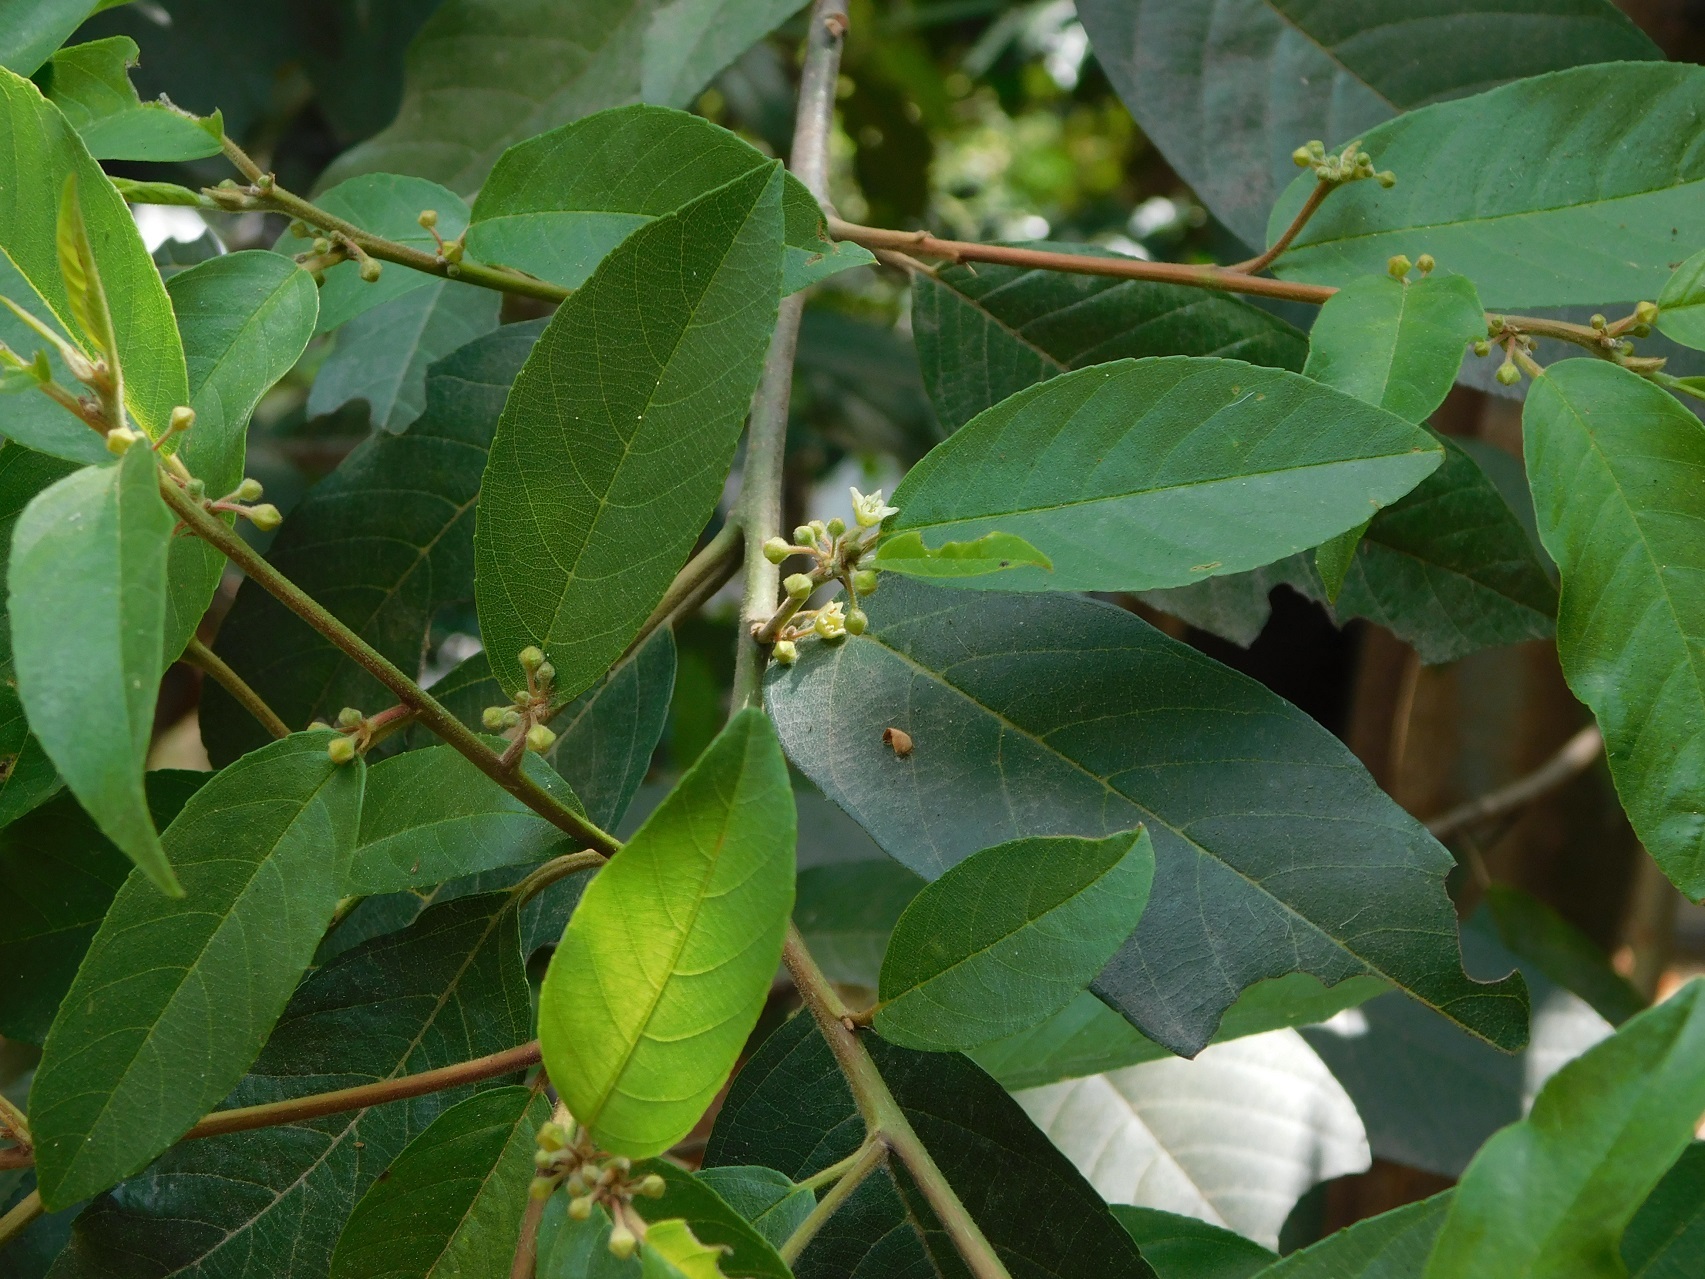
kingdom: Plantae
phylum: Tracheophyta
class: Magnoliopsida
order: Rosales
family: Rhamnaceae
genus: Frangula
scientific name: Frangula capreifolia
